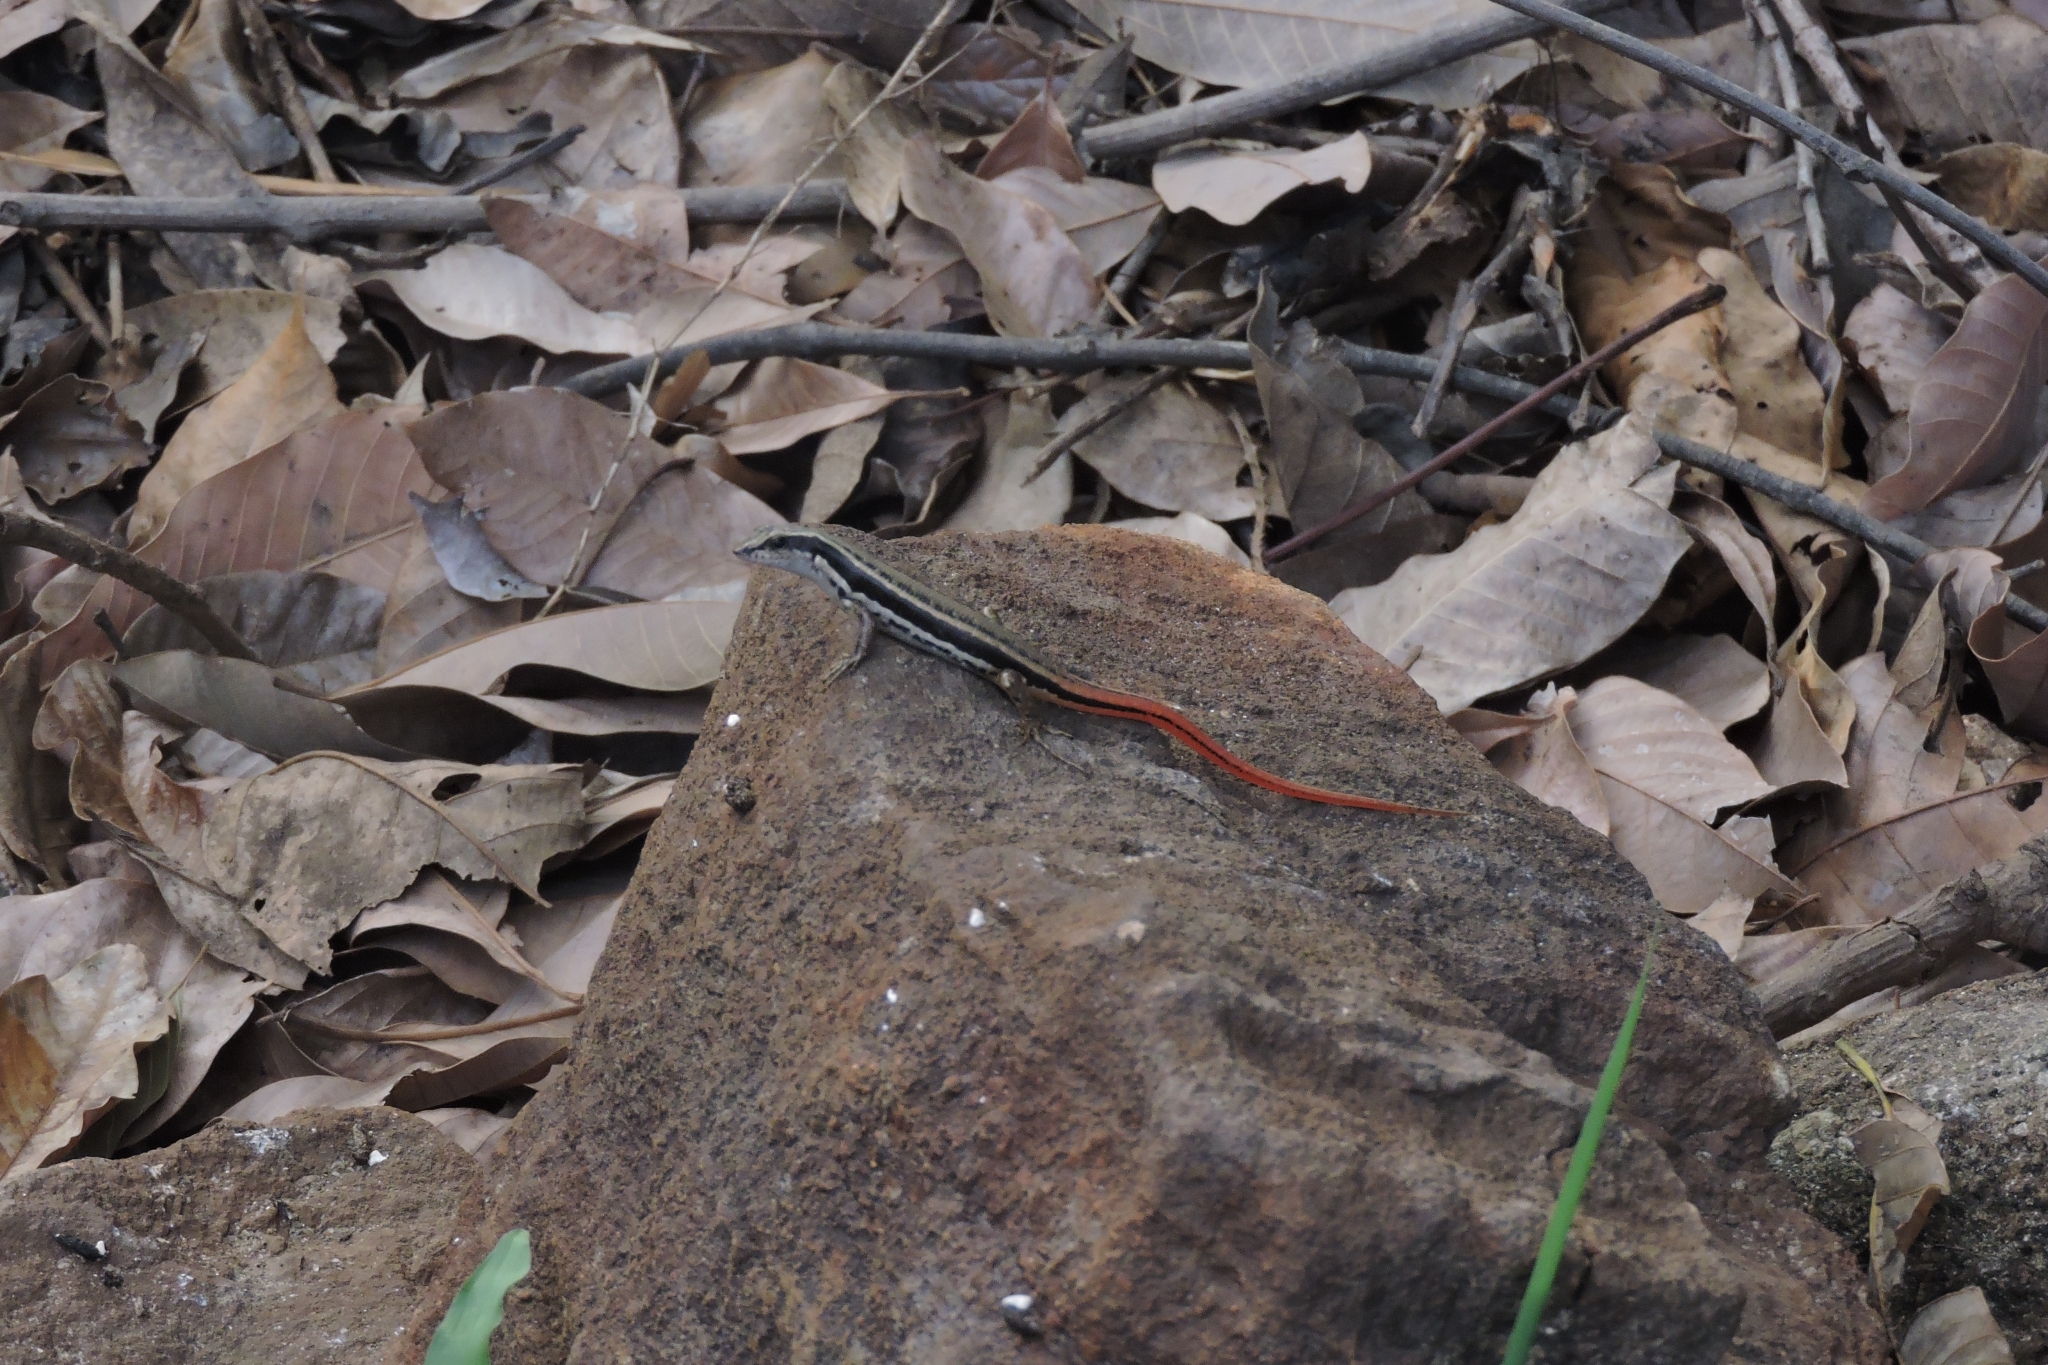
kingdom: Animalia
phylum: Chordata
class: Squamata
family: Scincidae
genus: Sphenomorphus
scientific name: Sphenomorphus dussumieri
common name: Dussumier's forest skink
